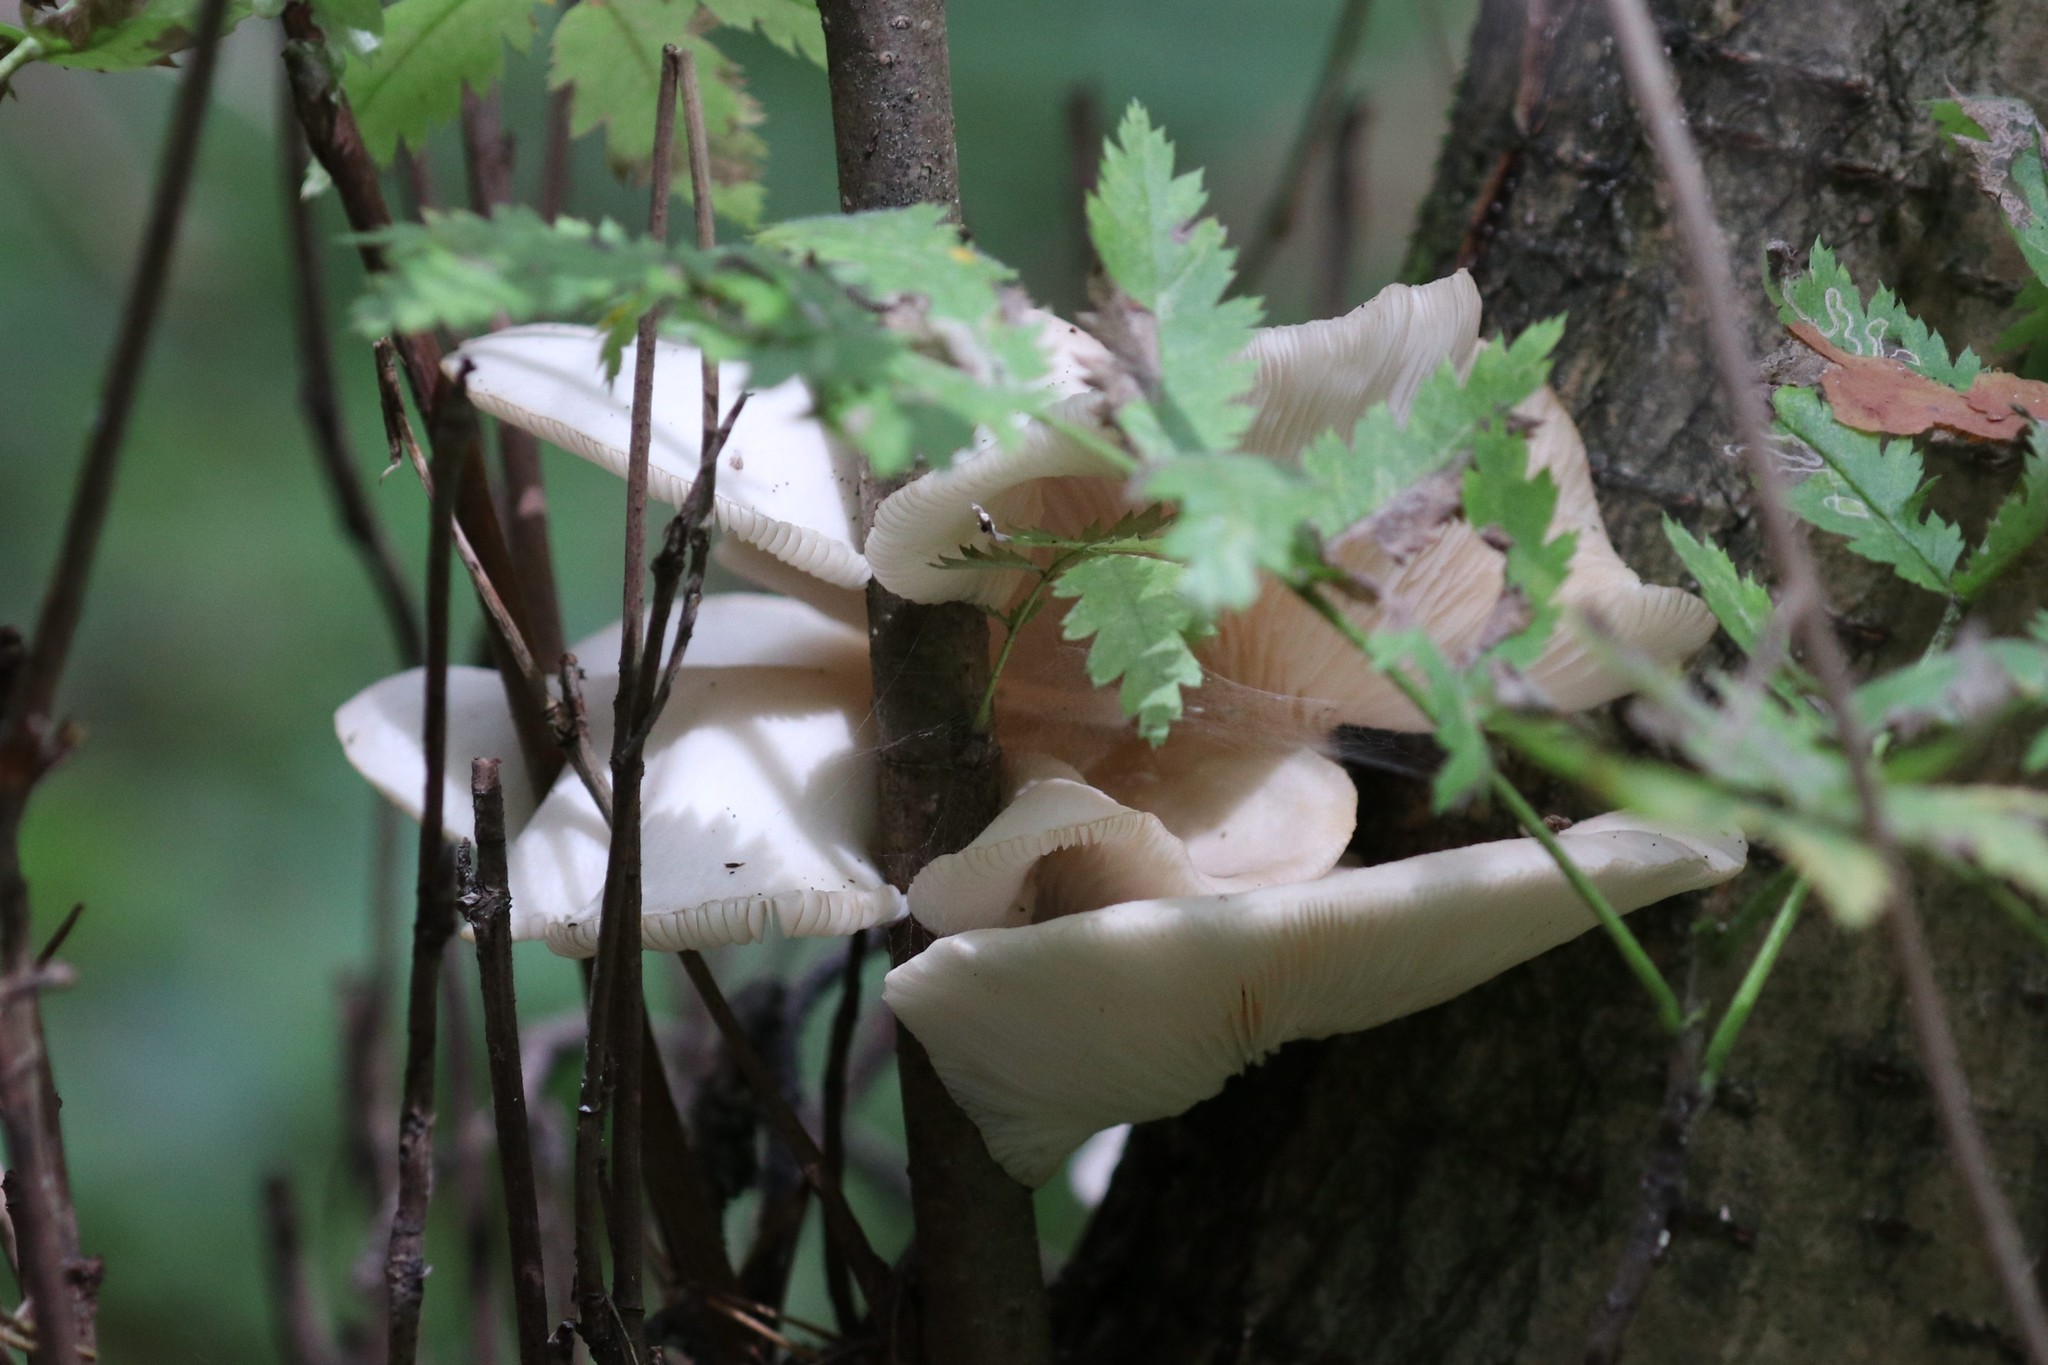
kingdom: Fungi
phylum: Basidiomycota
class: Agaricomycetes
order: Agaricales
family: Pleurotaceae
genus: Pleurotus
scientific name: Pleurotus pulmonarius
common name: Pale oyster
